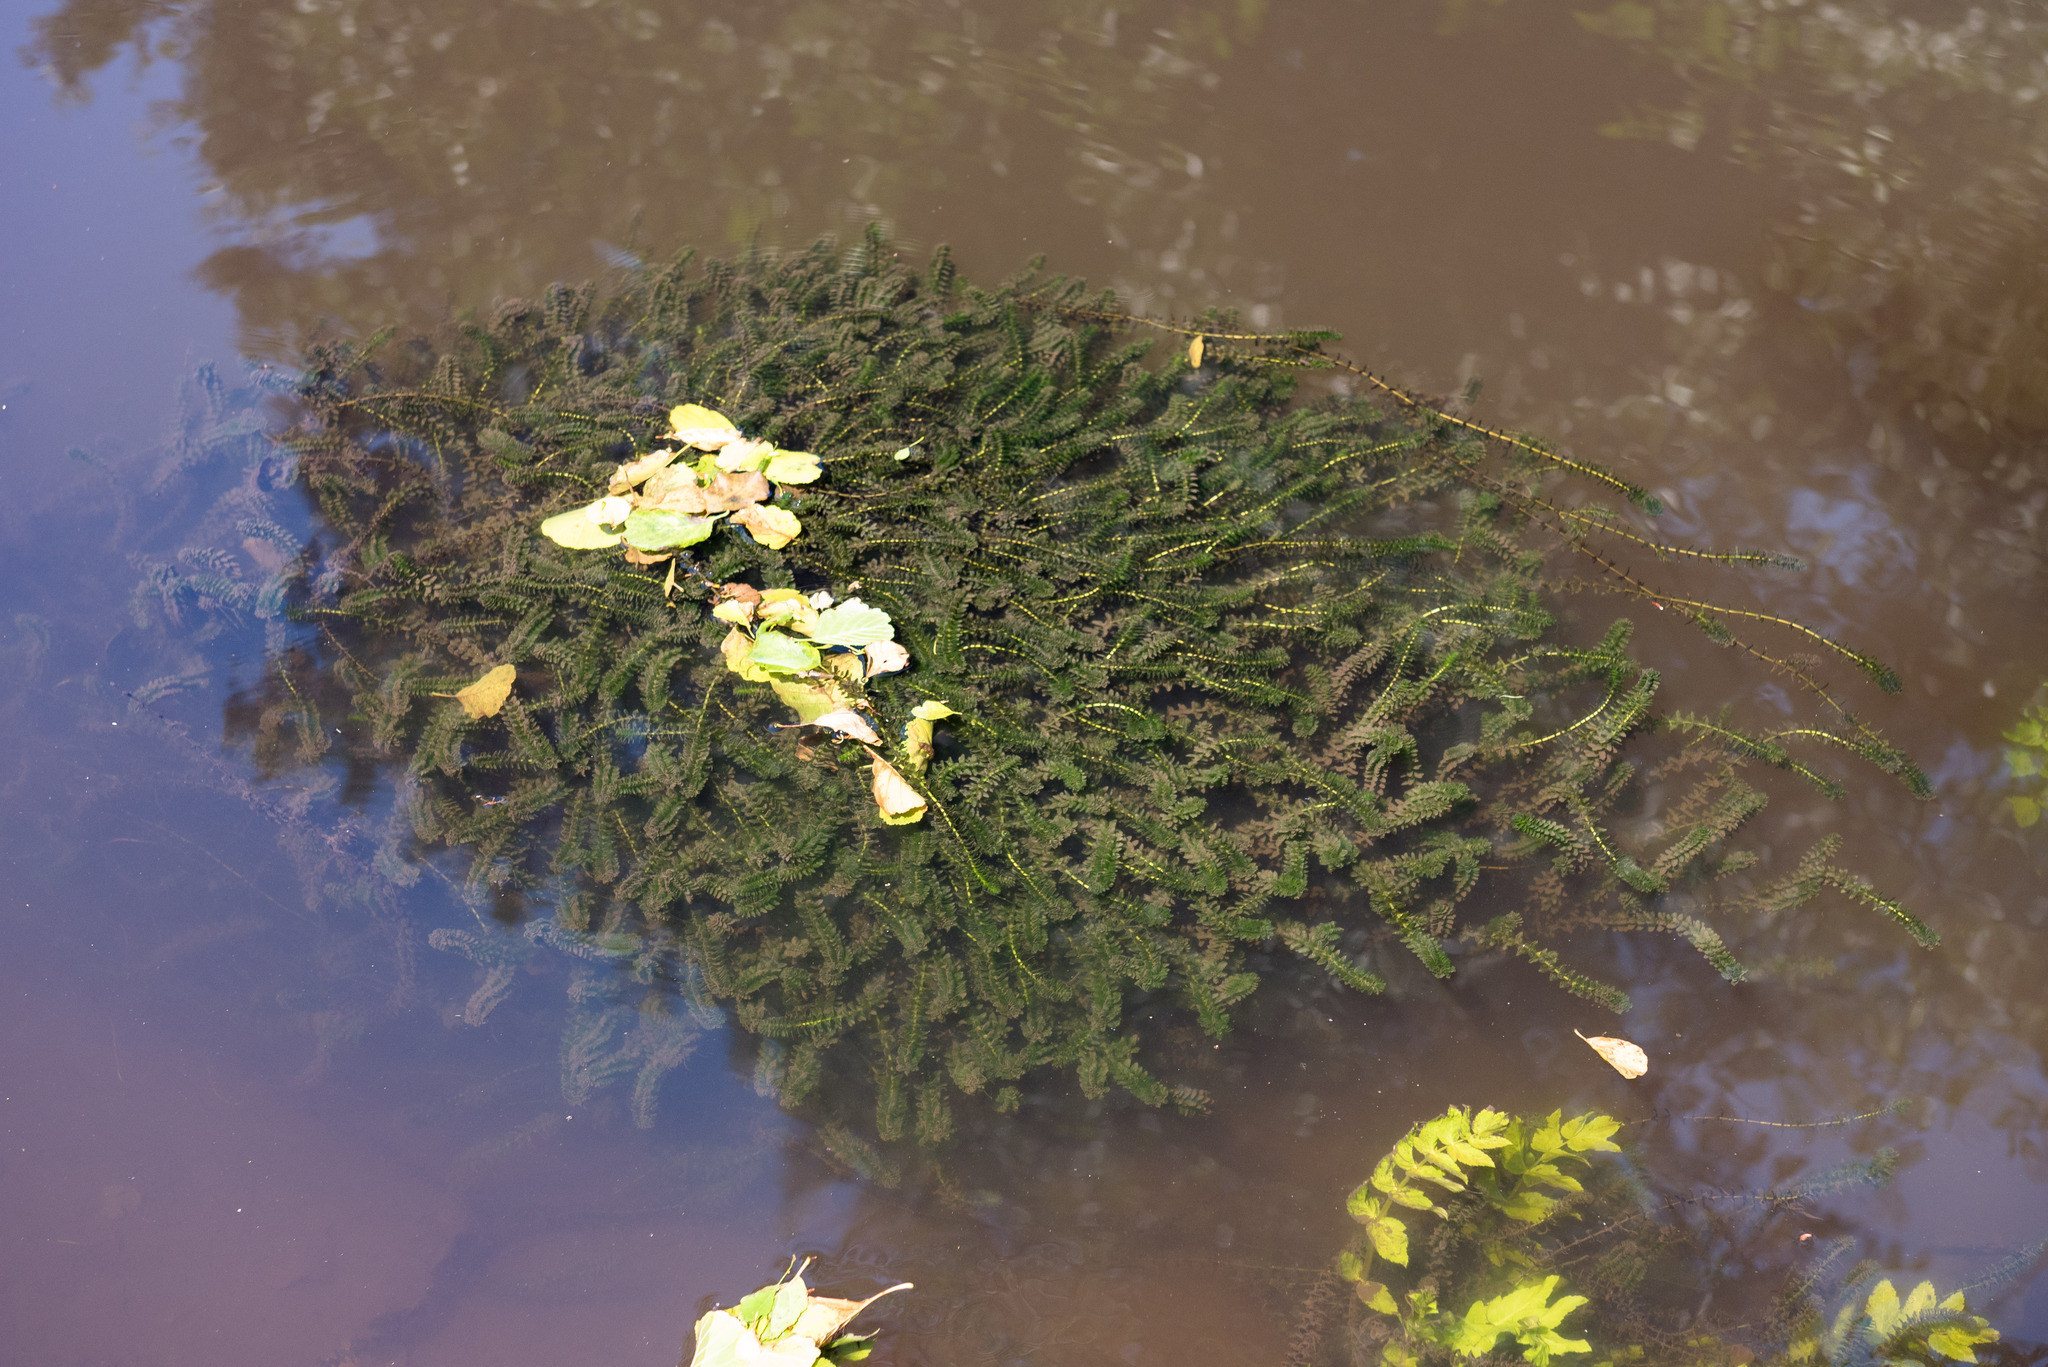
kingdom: Plantae
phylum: Tracheophyta
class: Liliopsida
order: Alismatales
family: Hydrocharitaceae
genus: Elodea
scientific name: Elodea canadensis
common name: Canadian waterweed
